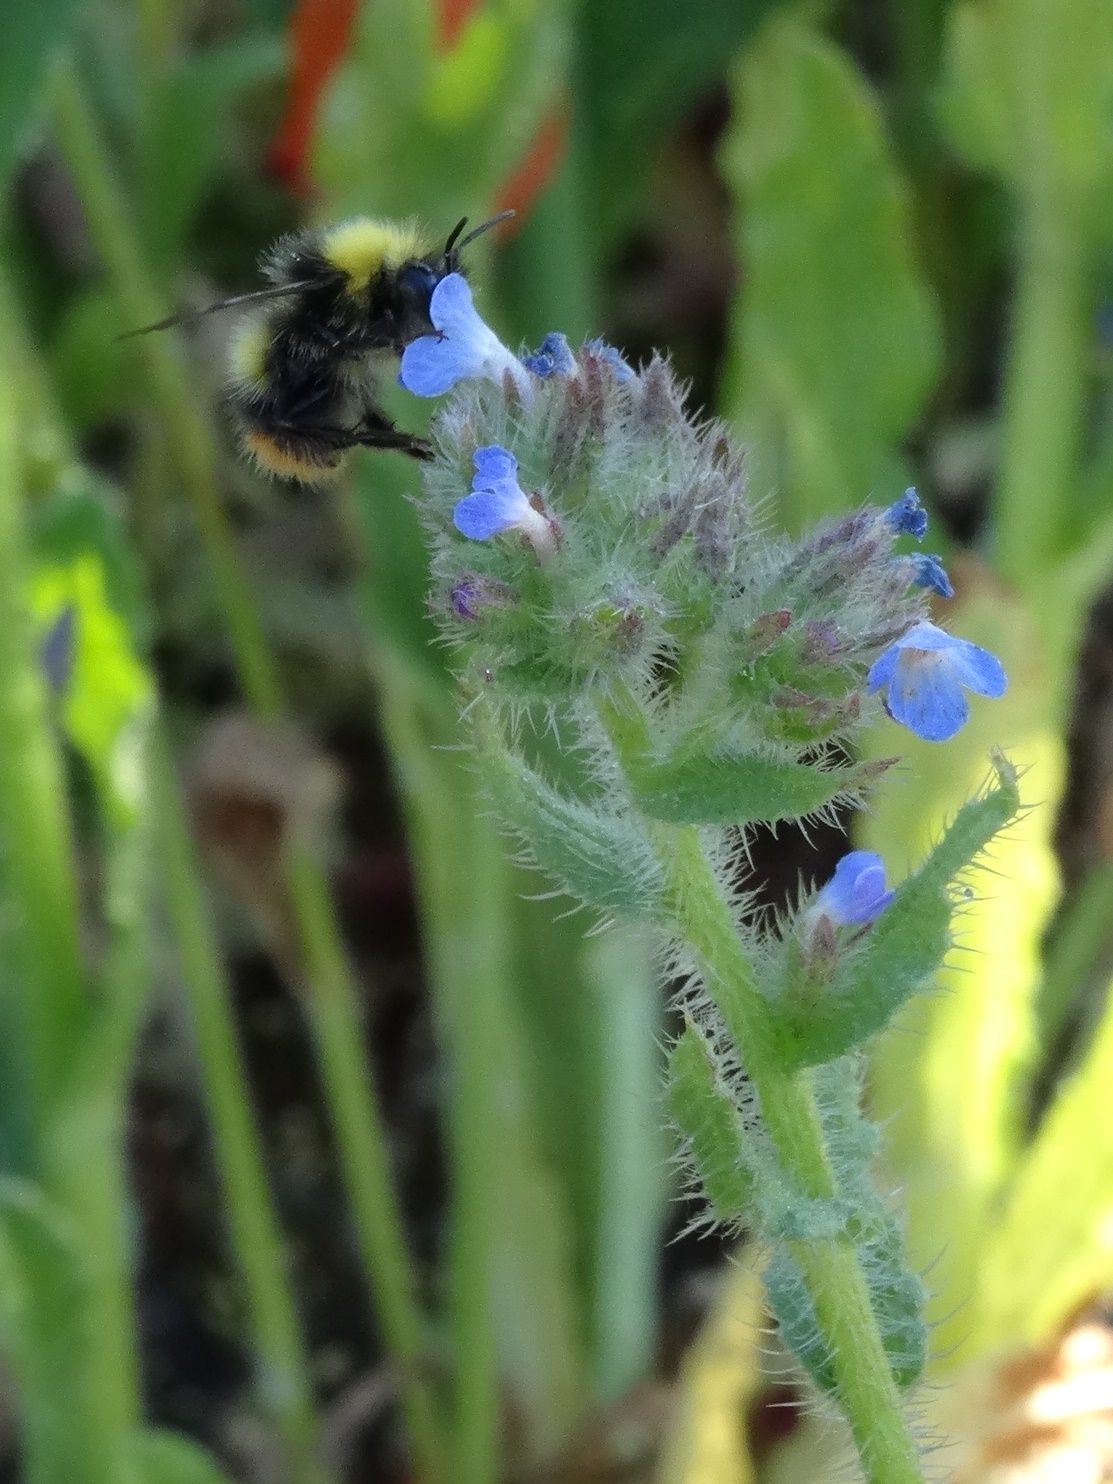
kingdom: Plantae
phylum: Tracheophyta
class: Magnoliopsida
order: Boraginales
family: Boraginaceae
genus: Lycopsis
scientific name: Lycopsis arvensis
